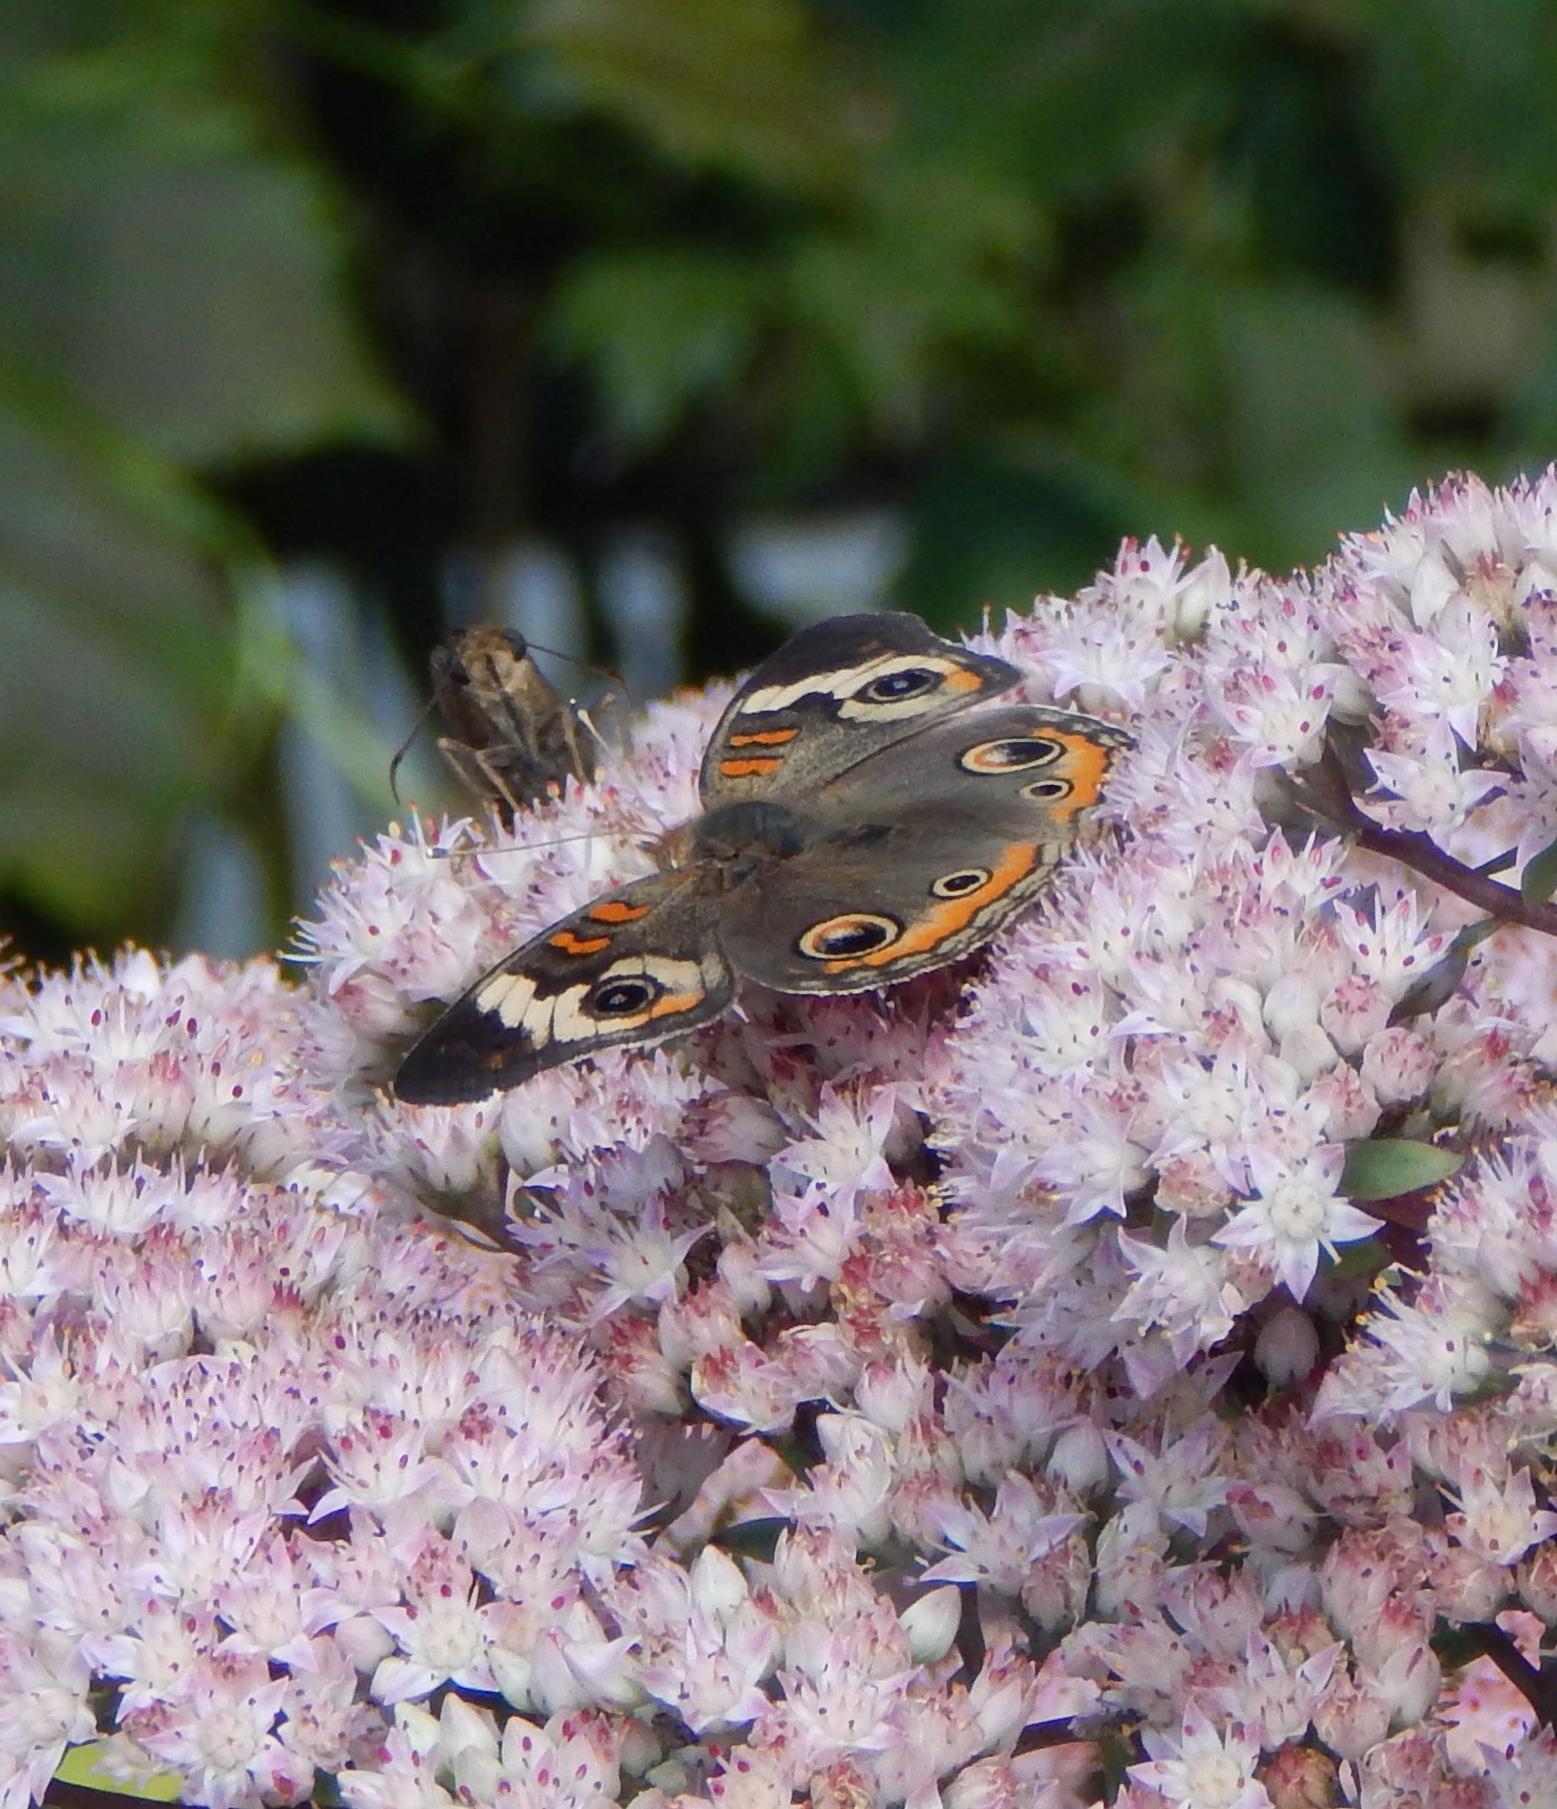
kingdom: Animalia
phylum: Arthropoda
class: Insecta
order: Lepidoptera
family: Nymphalidae
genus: Junonia
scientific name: Junonia coenia
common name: Common buckeye
